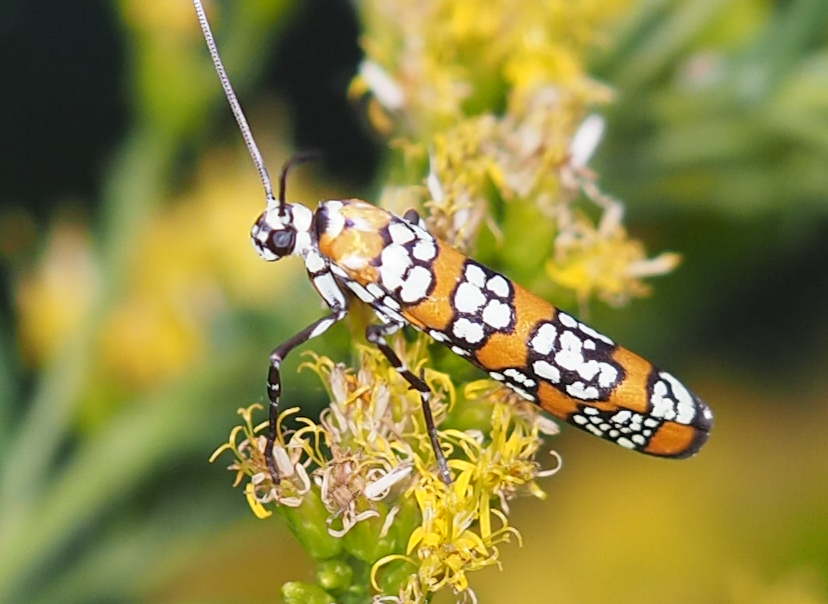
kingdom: Animalia
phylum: Arthropoda
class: Insecta
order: Lepidoptera
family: Attevidae
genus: Atteva
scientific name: Atteva punctella
